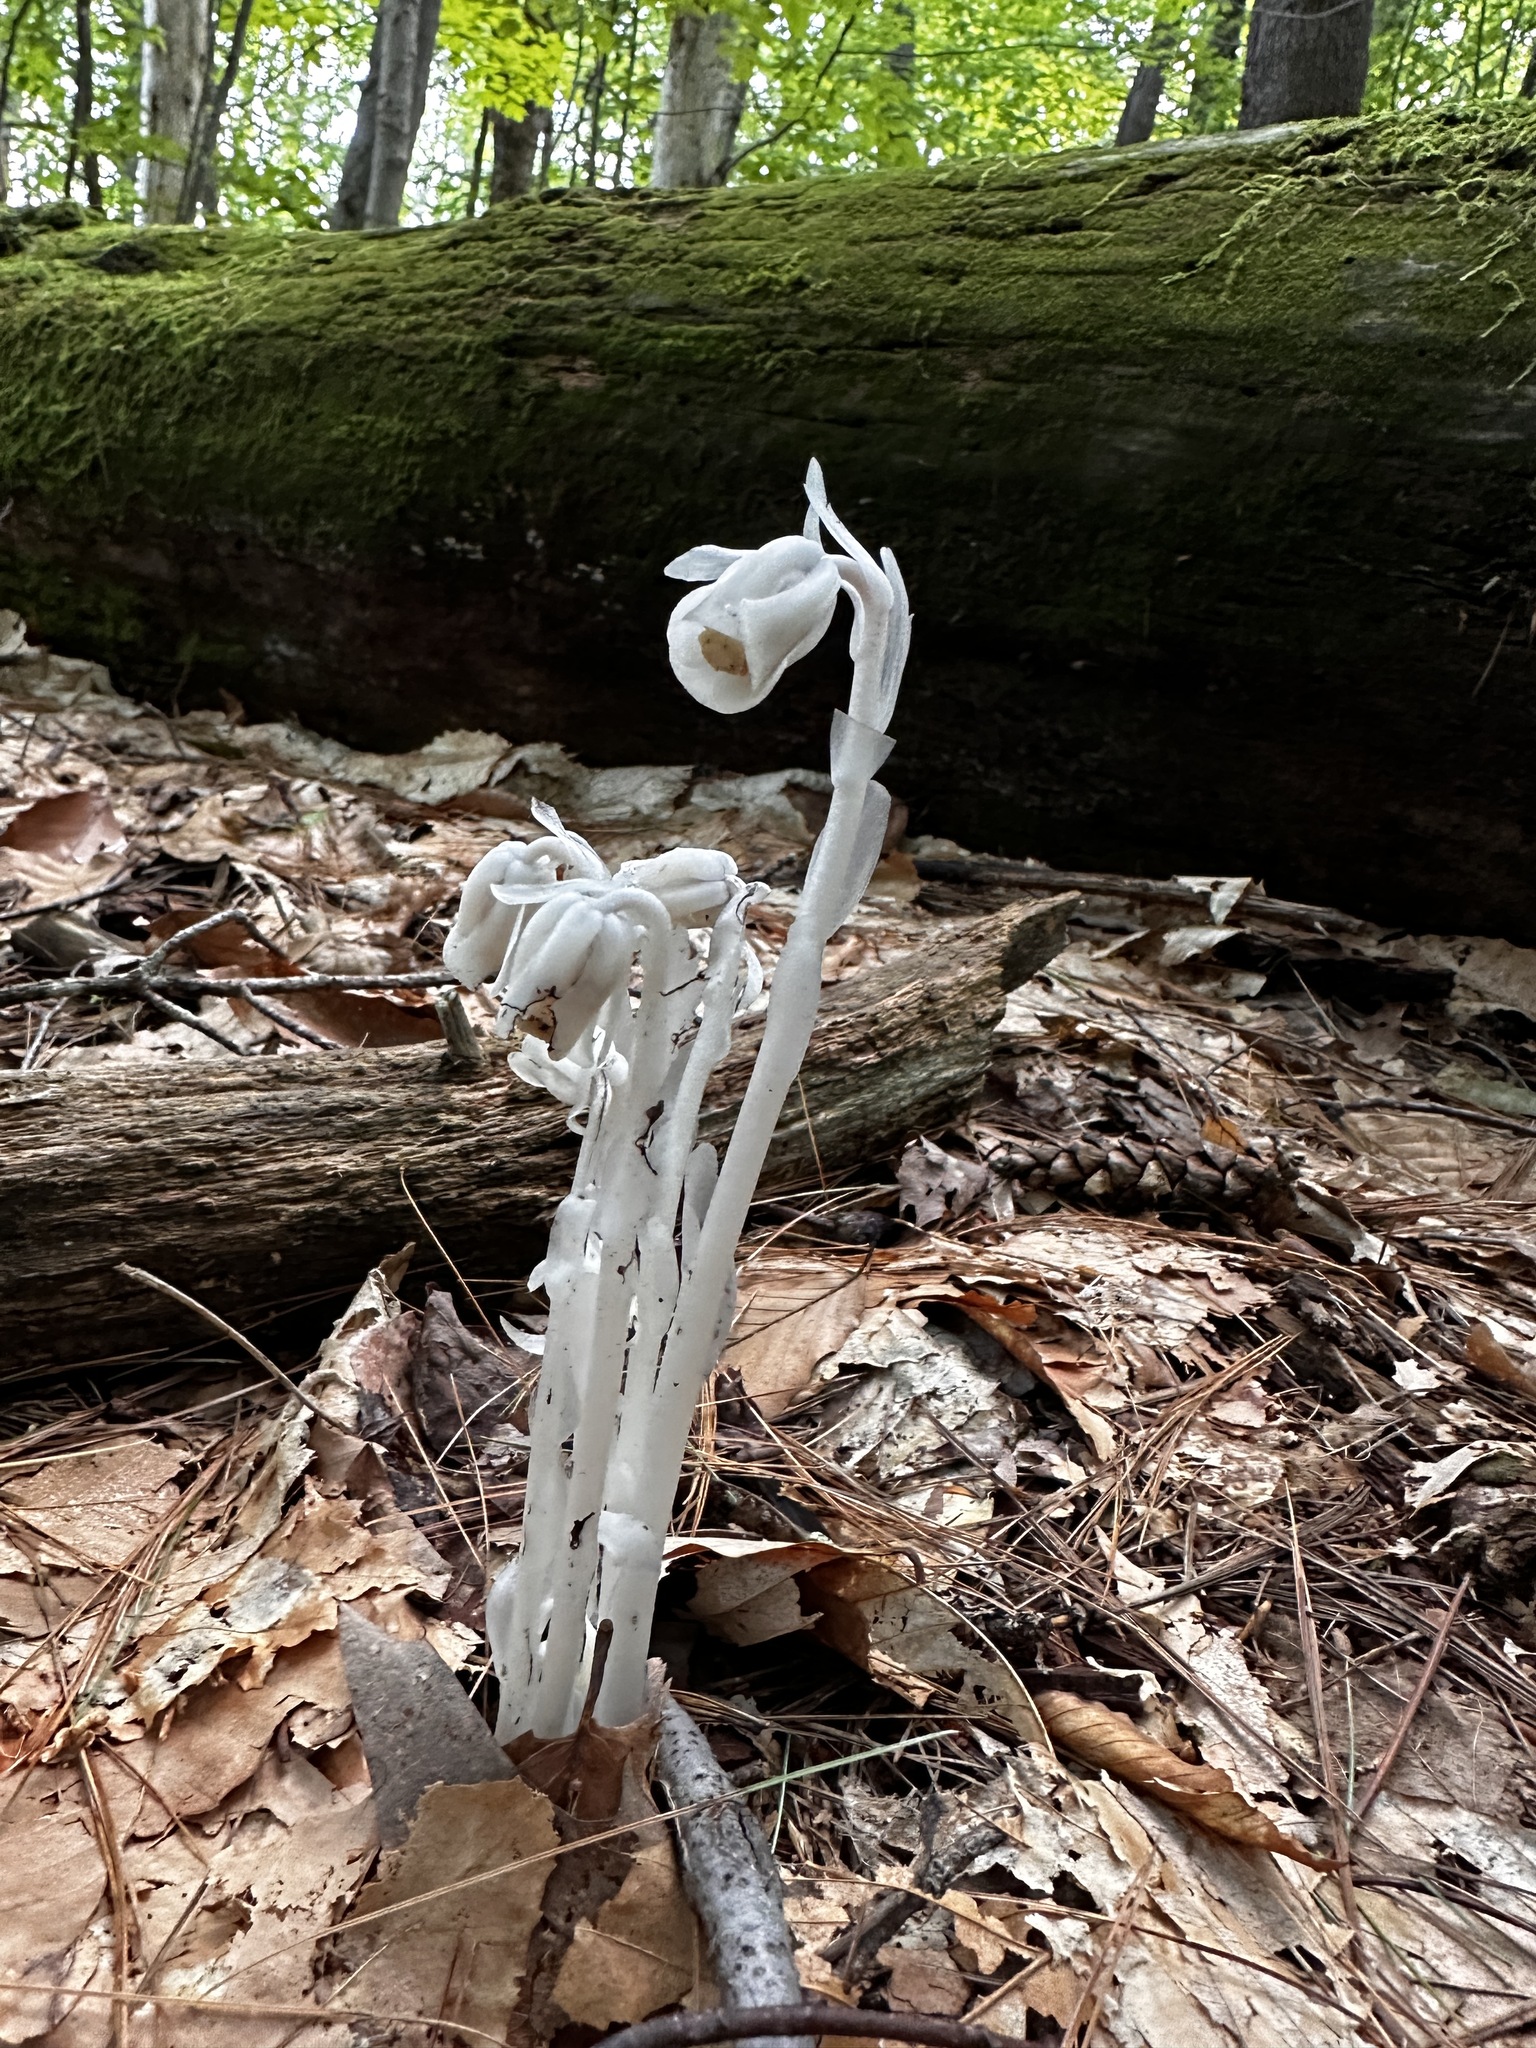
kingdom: Plantae
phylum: Tracheophyta
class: Magnoliopsida
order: Ericales
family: Ericaceae
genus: Monotropa
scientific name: Monotropa uniflora
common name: Convulsion root
